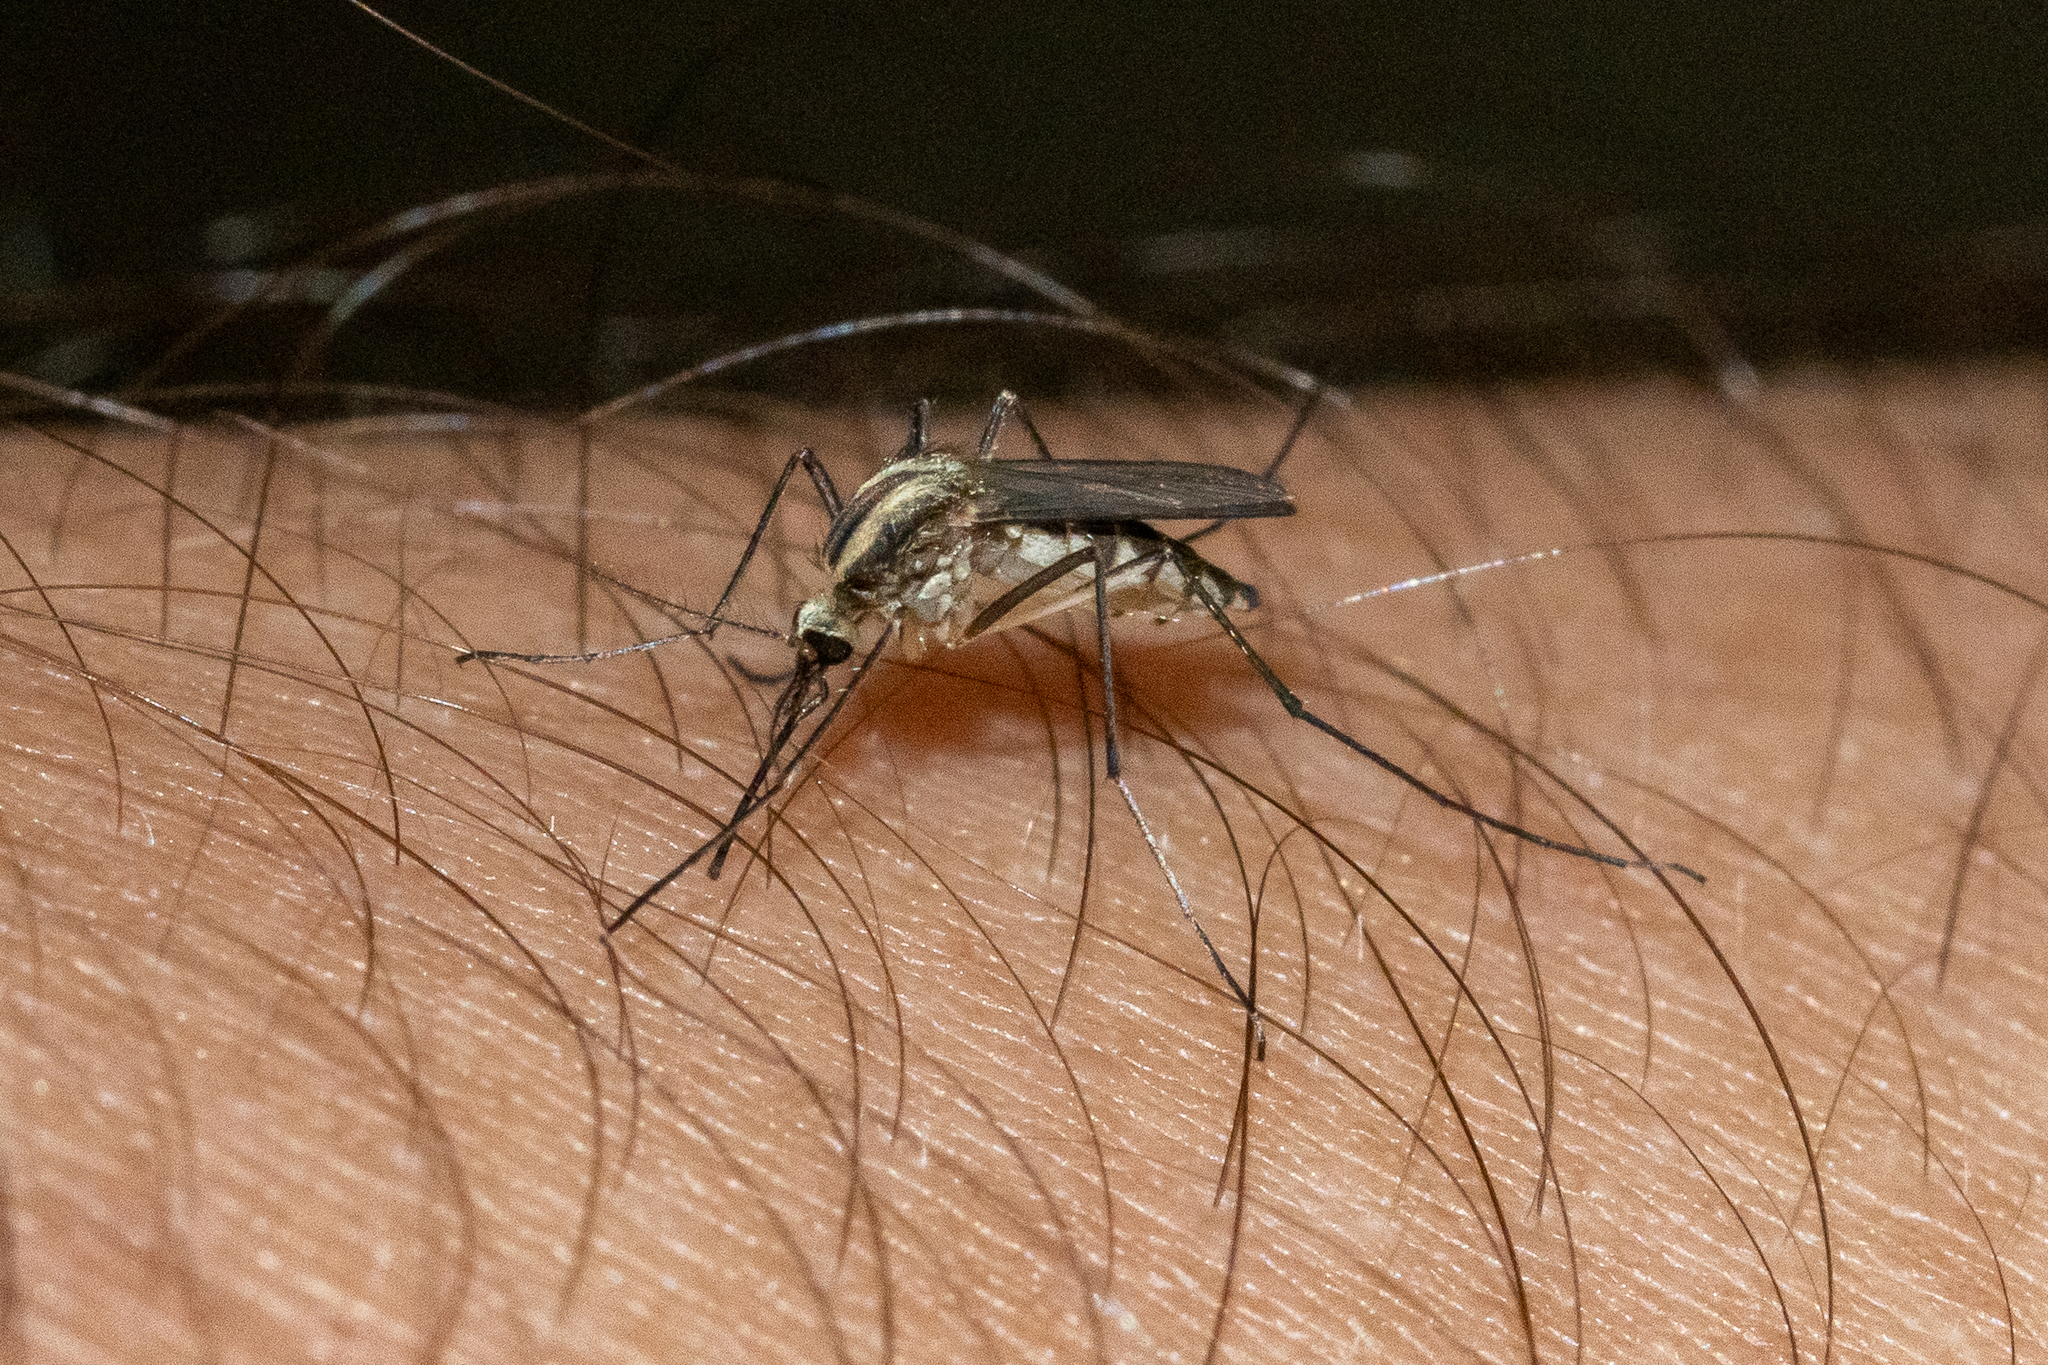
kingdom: Animalia
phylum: Arthropoda
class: Insecta
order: Diptera
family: Culicidae
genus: Aedes
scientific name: Aedes trivittatus
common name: Plains floodwater mosquito
